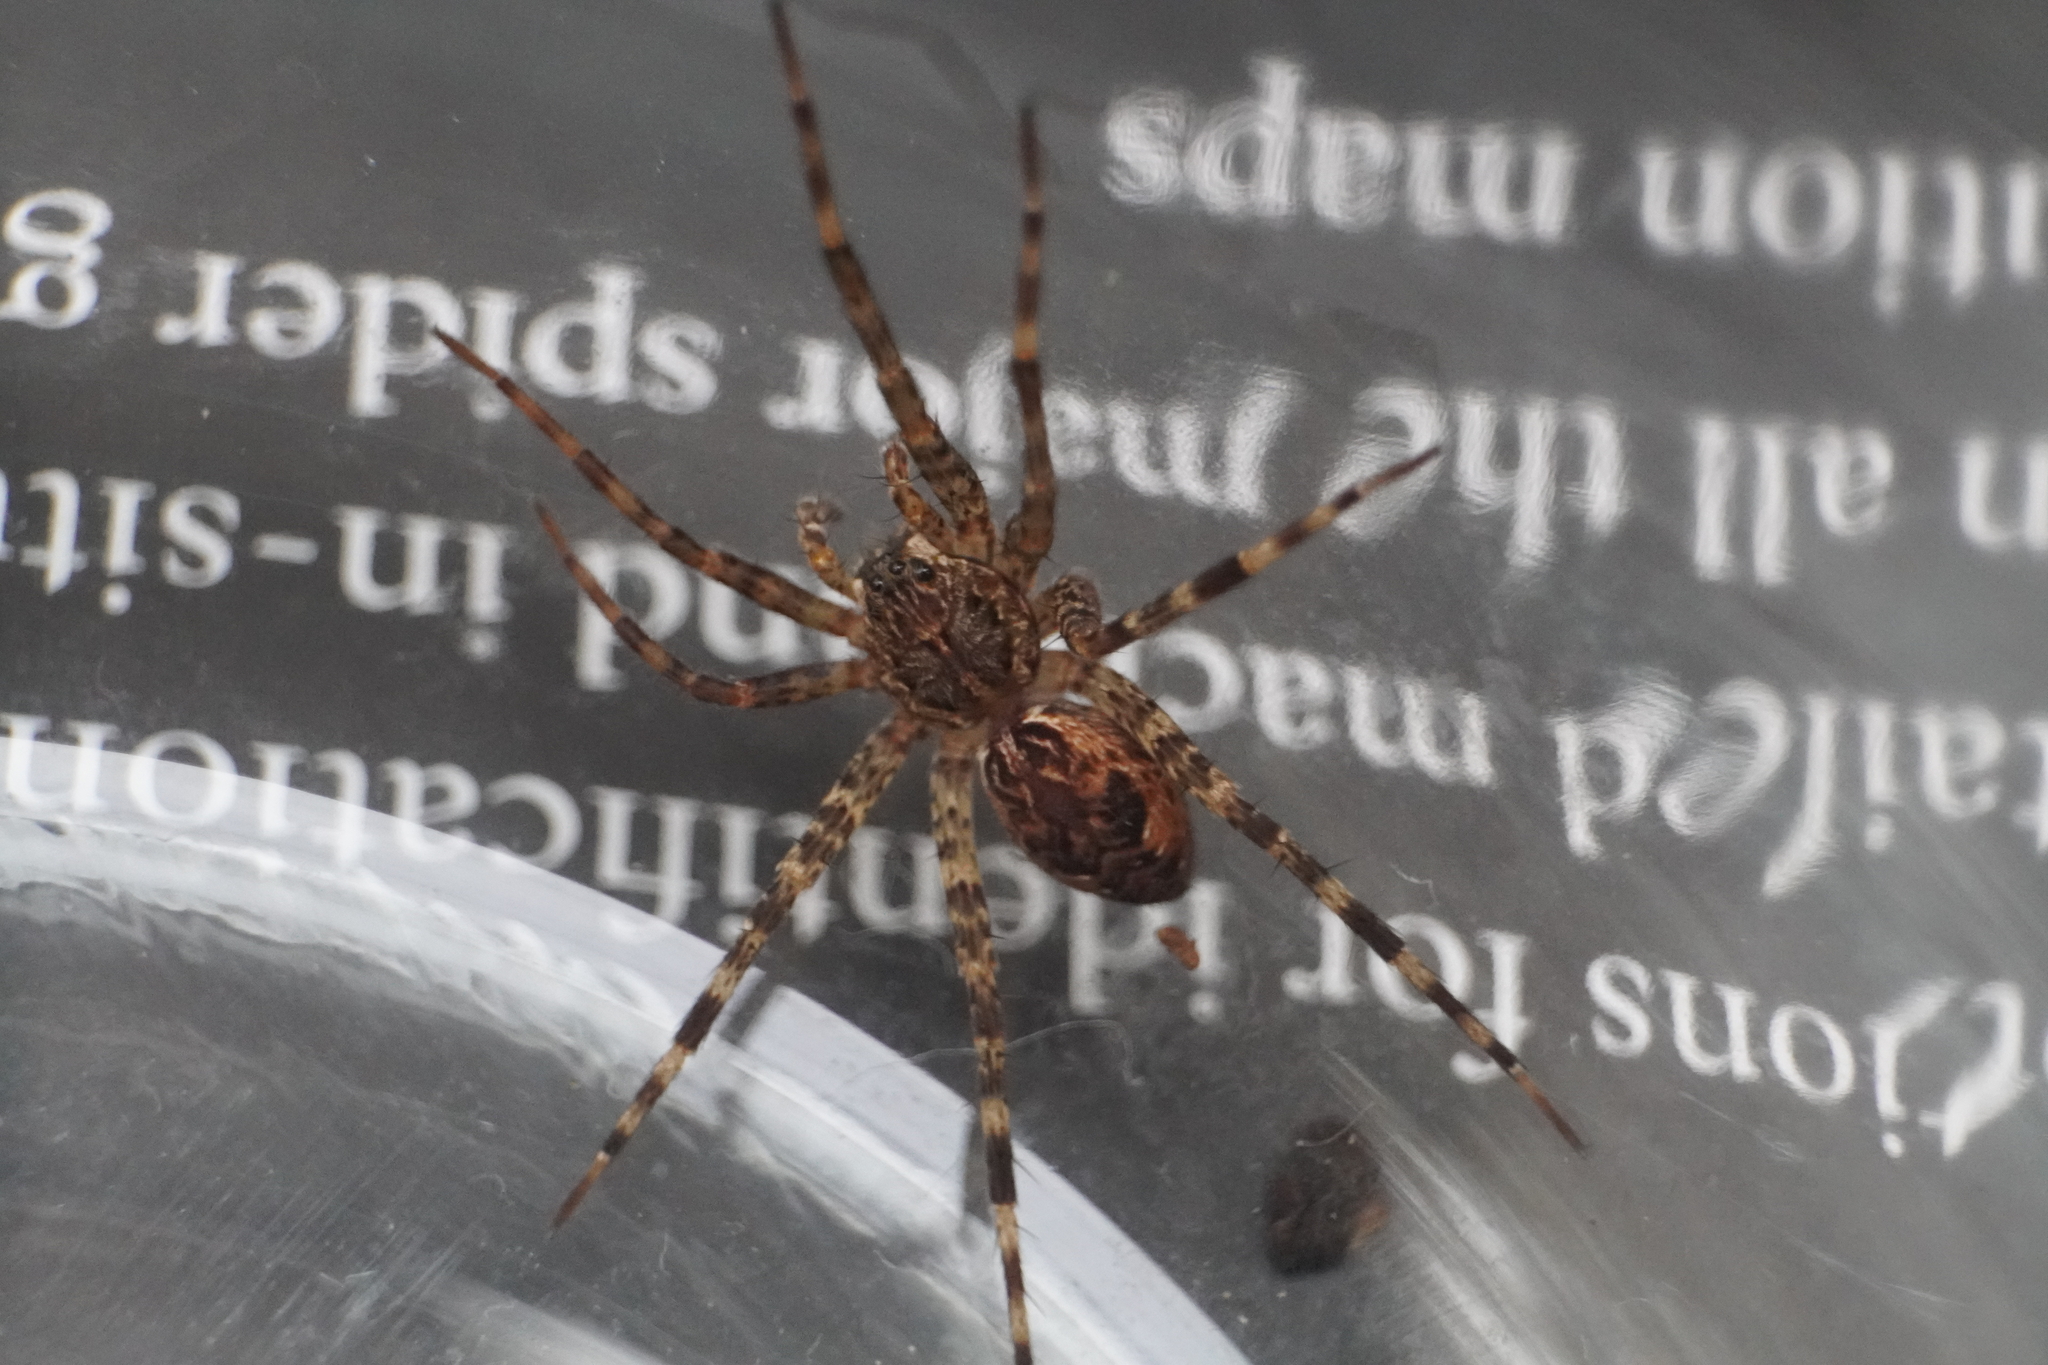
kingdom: Animalia
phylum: Arthropoda
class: Arachnida
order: Araneae
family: Pisauridae
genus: Dolomedes
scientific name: Dolomedes tenebrosus
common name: Dark fishing spider
